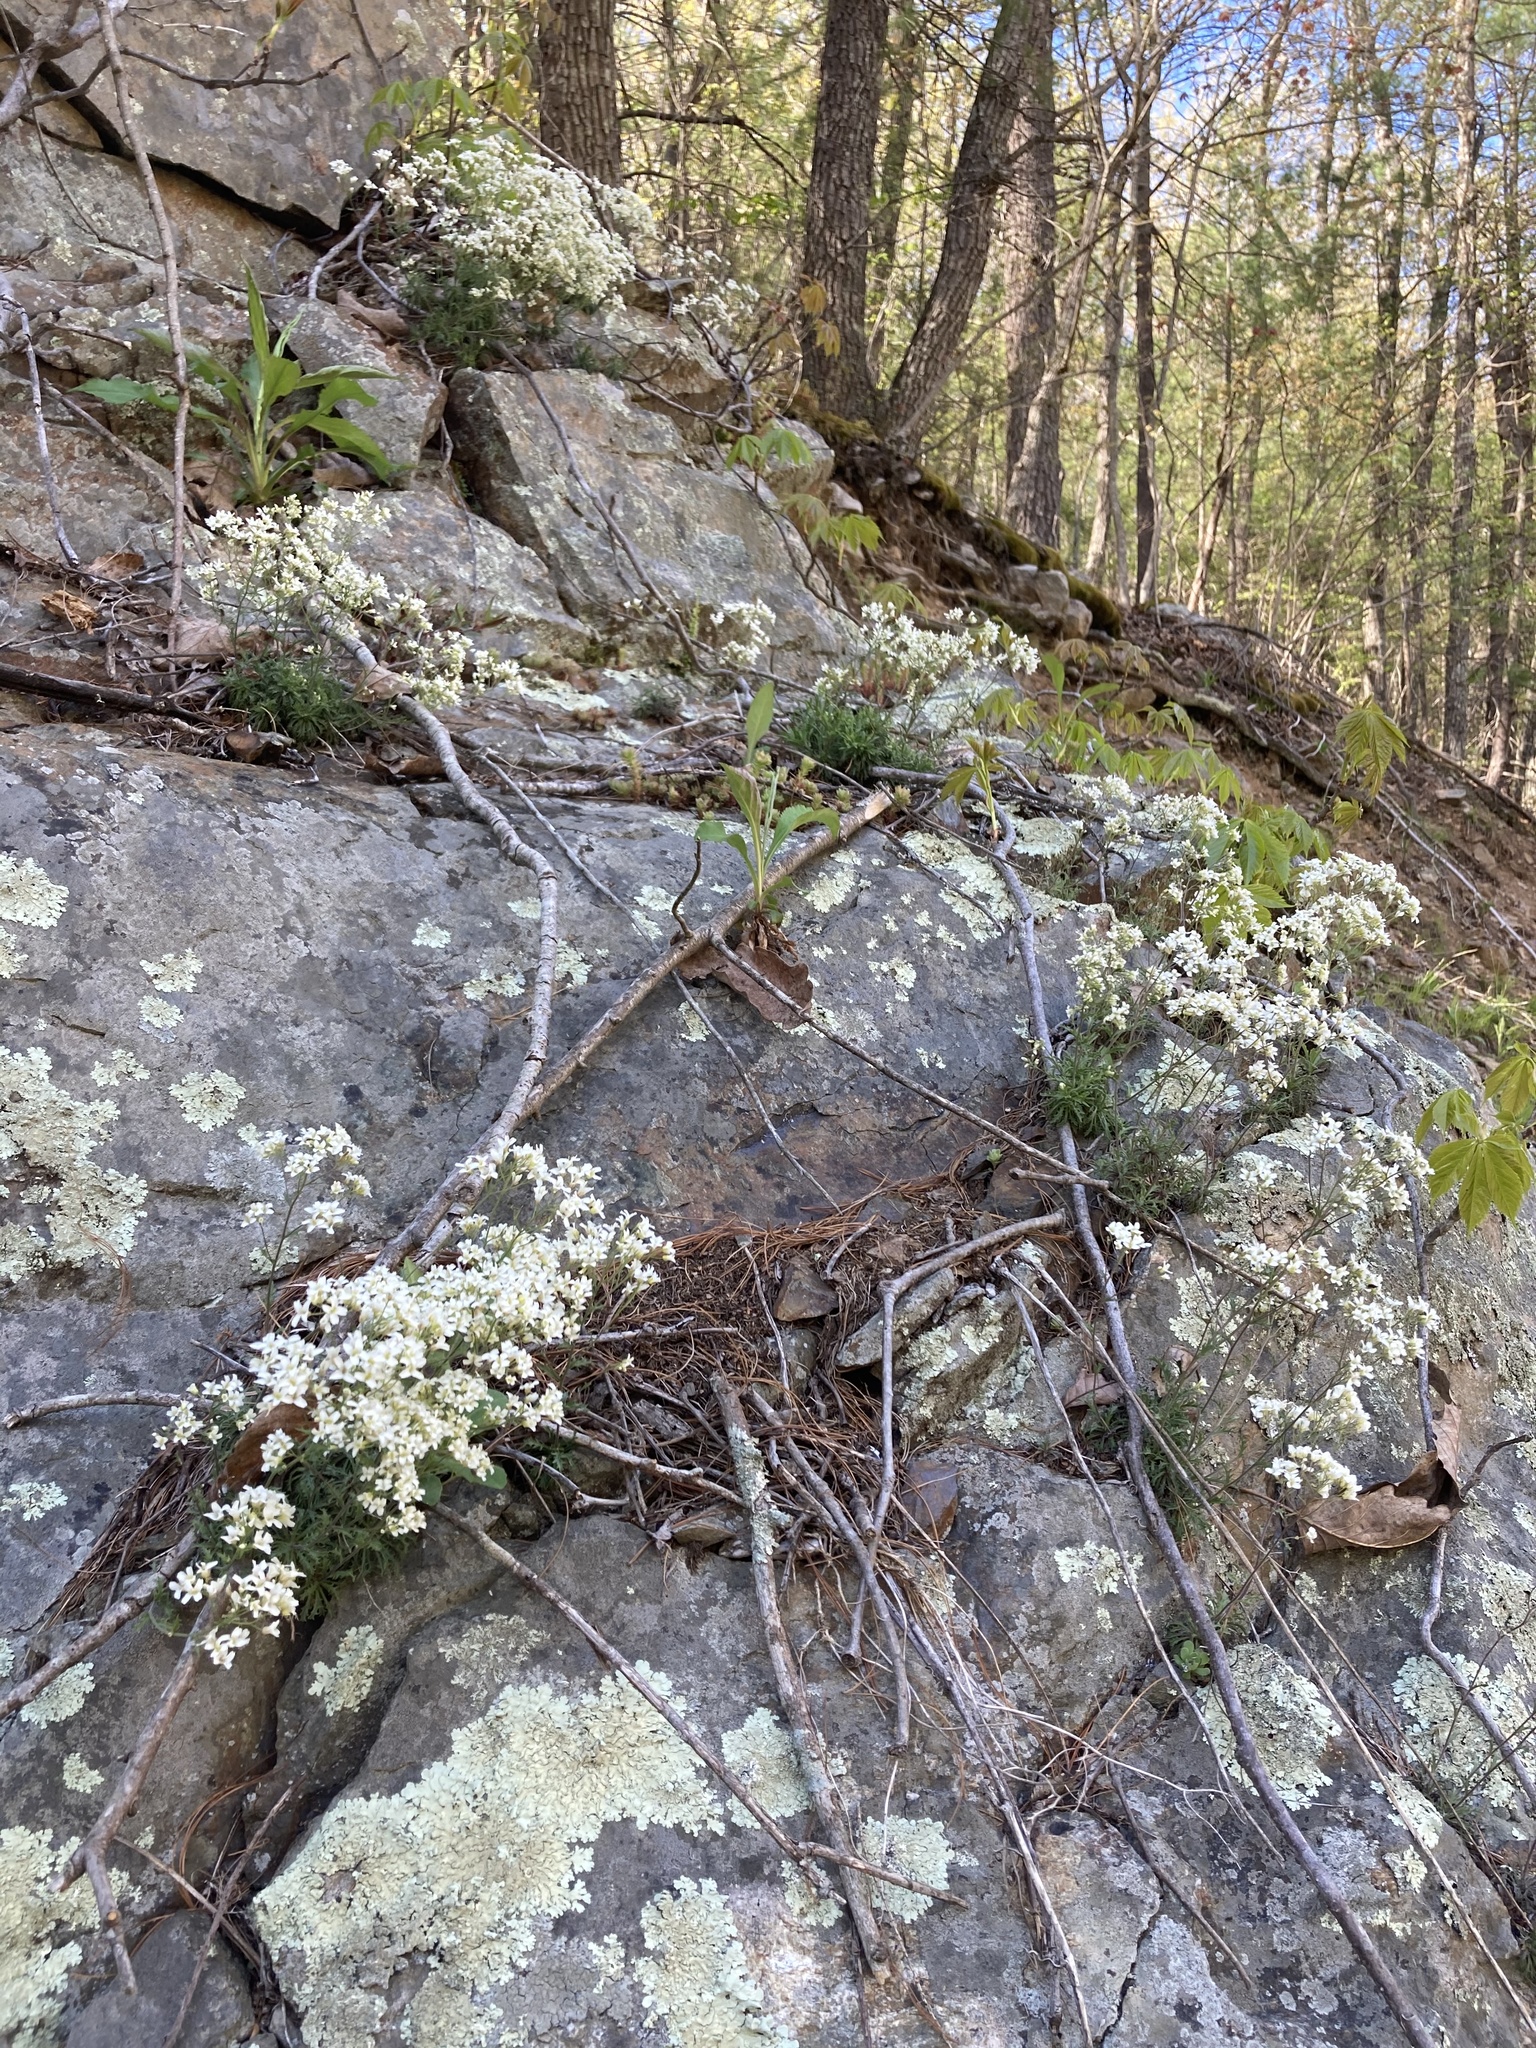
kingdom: Plantae
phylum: Tracheophyta
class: Magnoliopsida
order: Brassicales
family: Brassicaceae
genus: Draba
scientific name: Draba ramosissima
